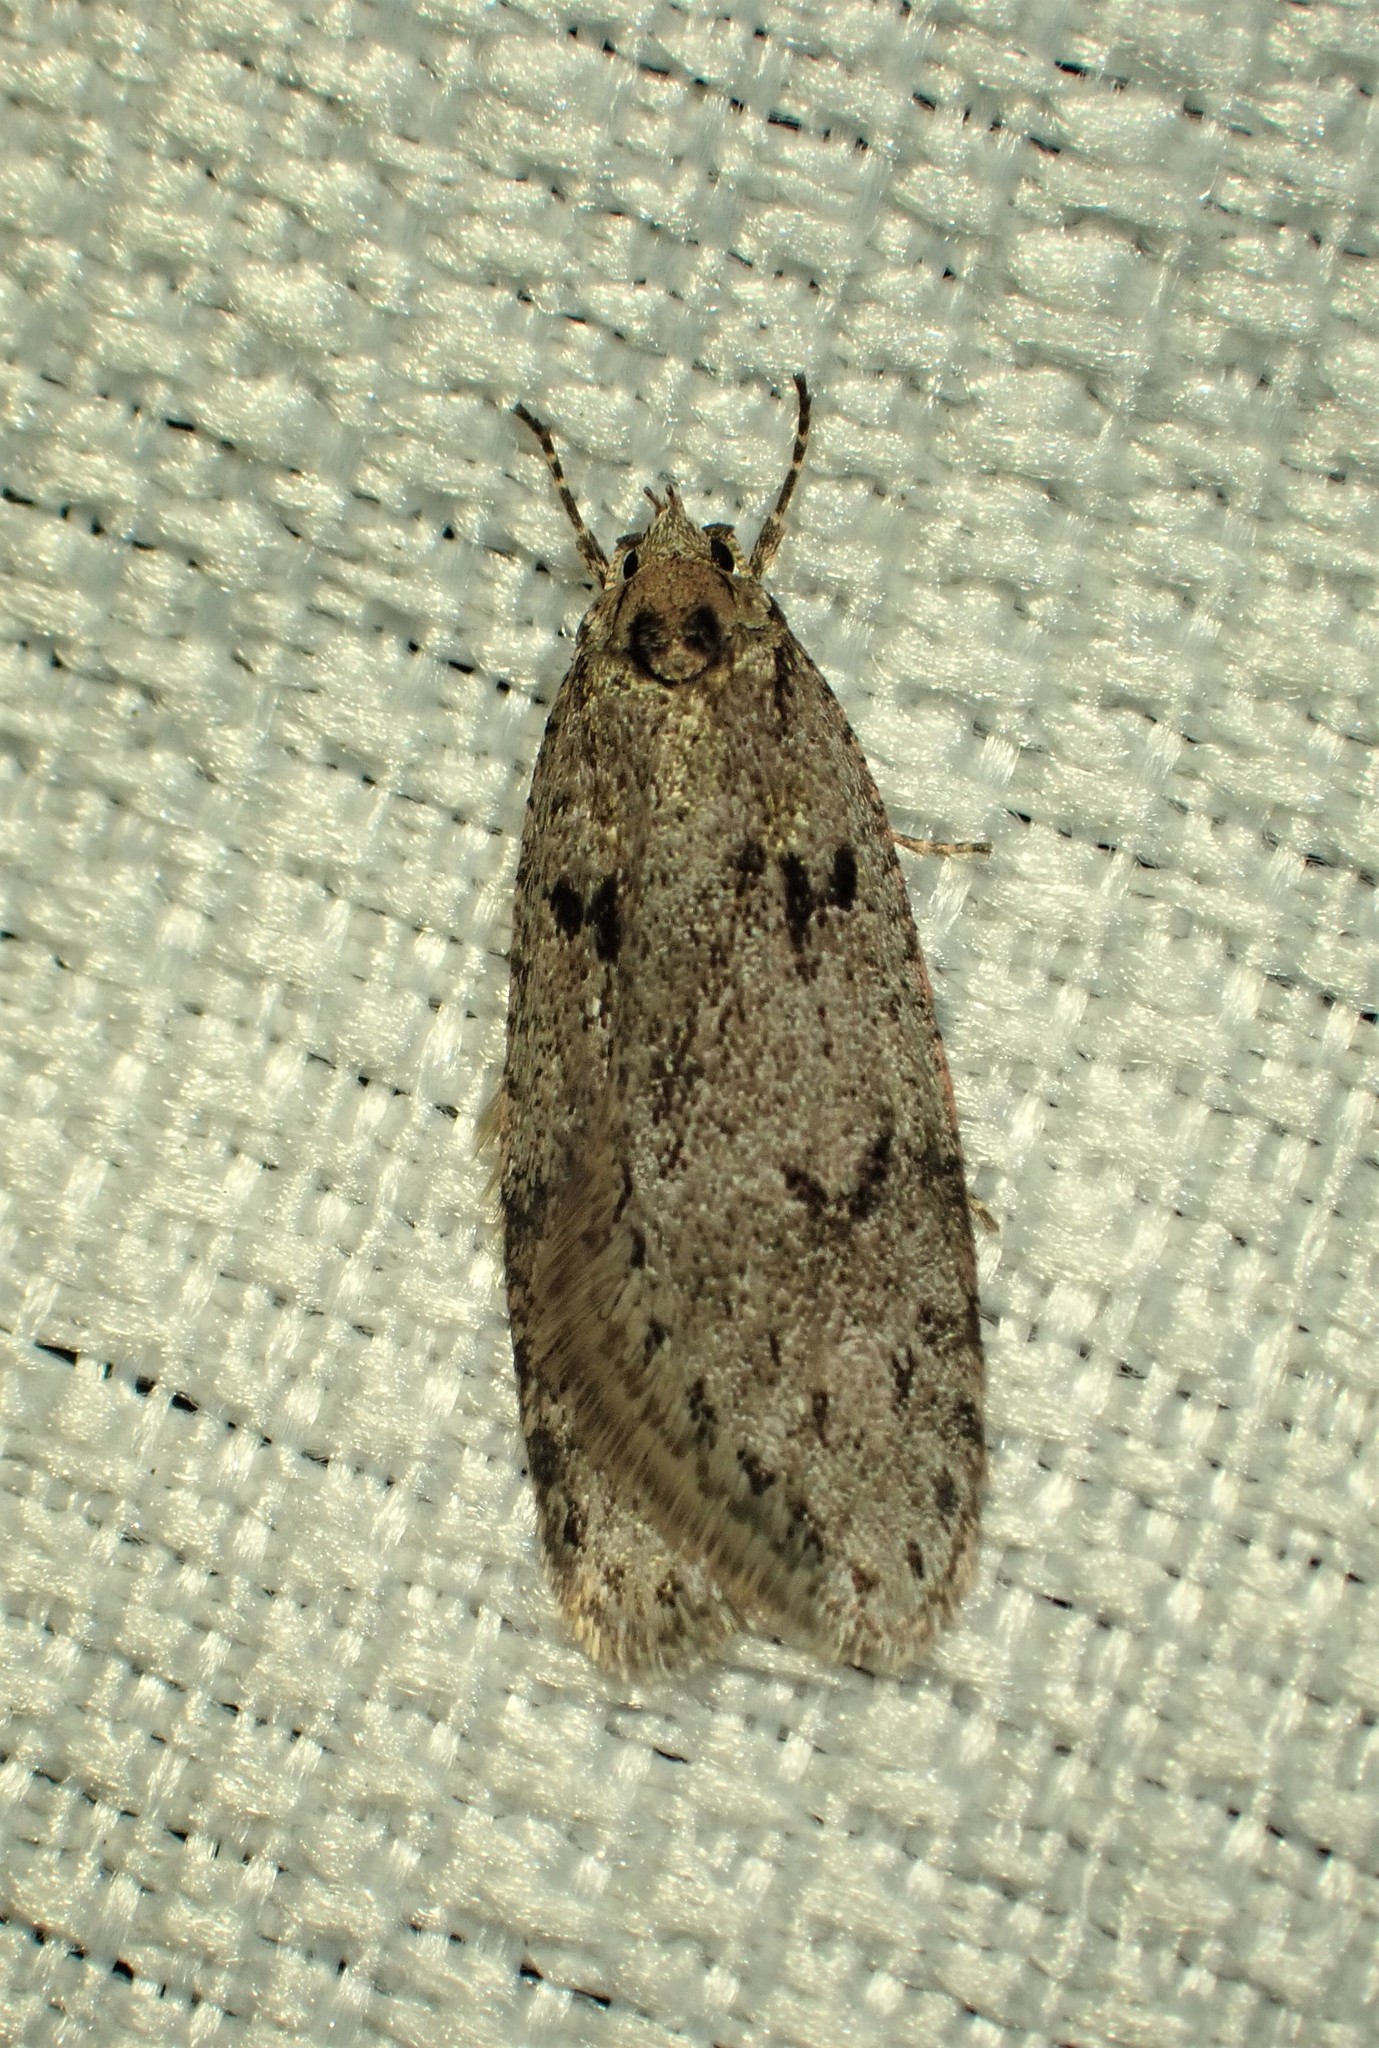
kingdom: Animalia
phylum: Arthropoda
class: Insecta
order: Lepidoptera
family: Depressariidae
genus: Semioscopis
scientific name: Semioscopis megamicrella
